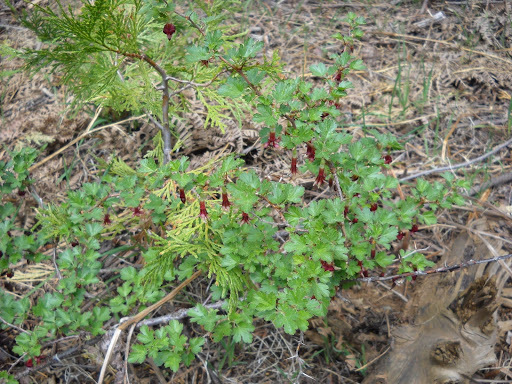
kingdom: Plantae
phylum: Tracheophyta
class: Magnoliopsida
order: Saxifragales
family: Grossulariaceae
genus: Ribes
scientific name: Ribes roezlii
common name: Sierra gooseberry
